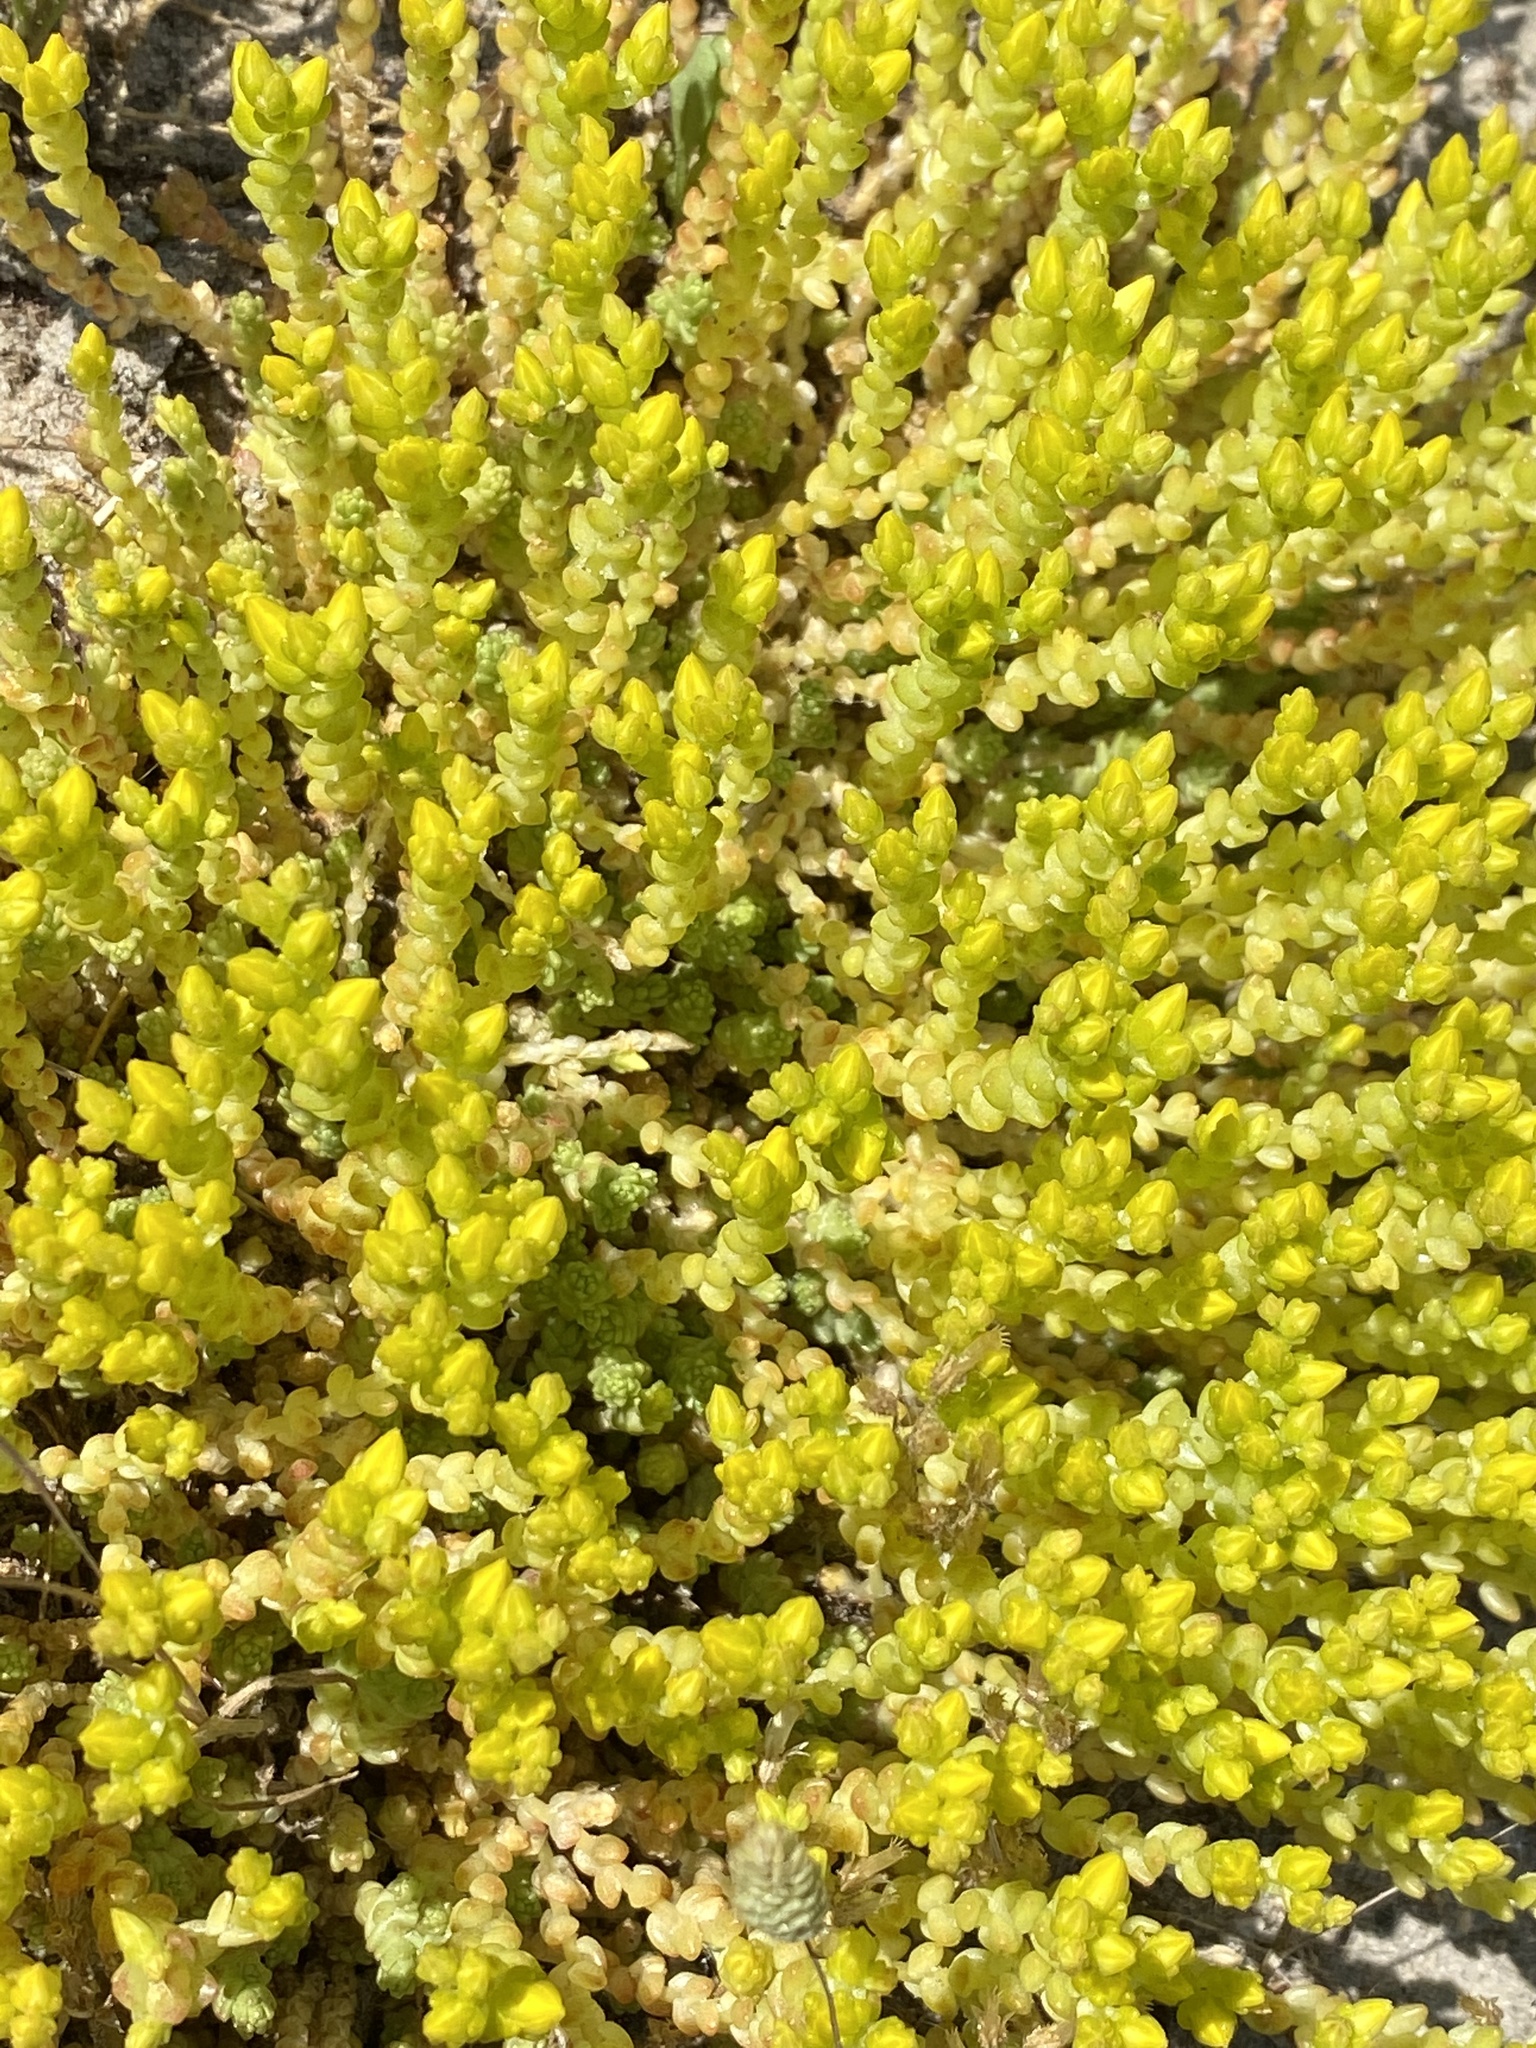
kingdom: Plantae
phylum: Tracheophyta
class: Magnoliopsida
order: Saxifragales
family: Crassulaceae
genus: Sedum
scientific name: Sedum acre
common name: Biting stonecrop
